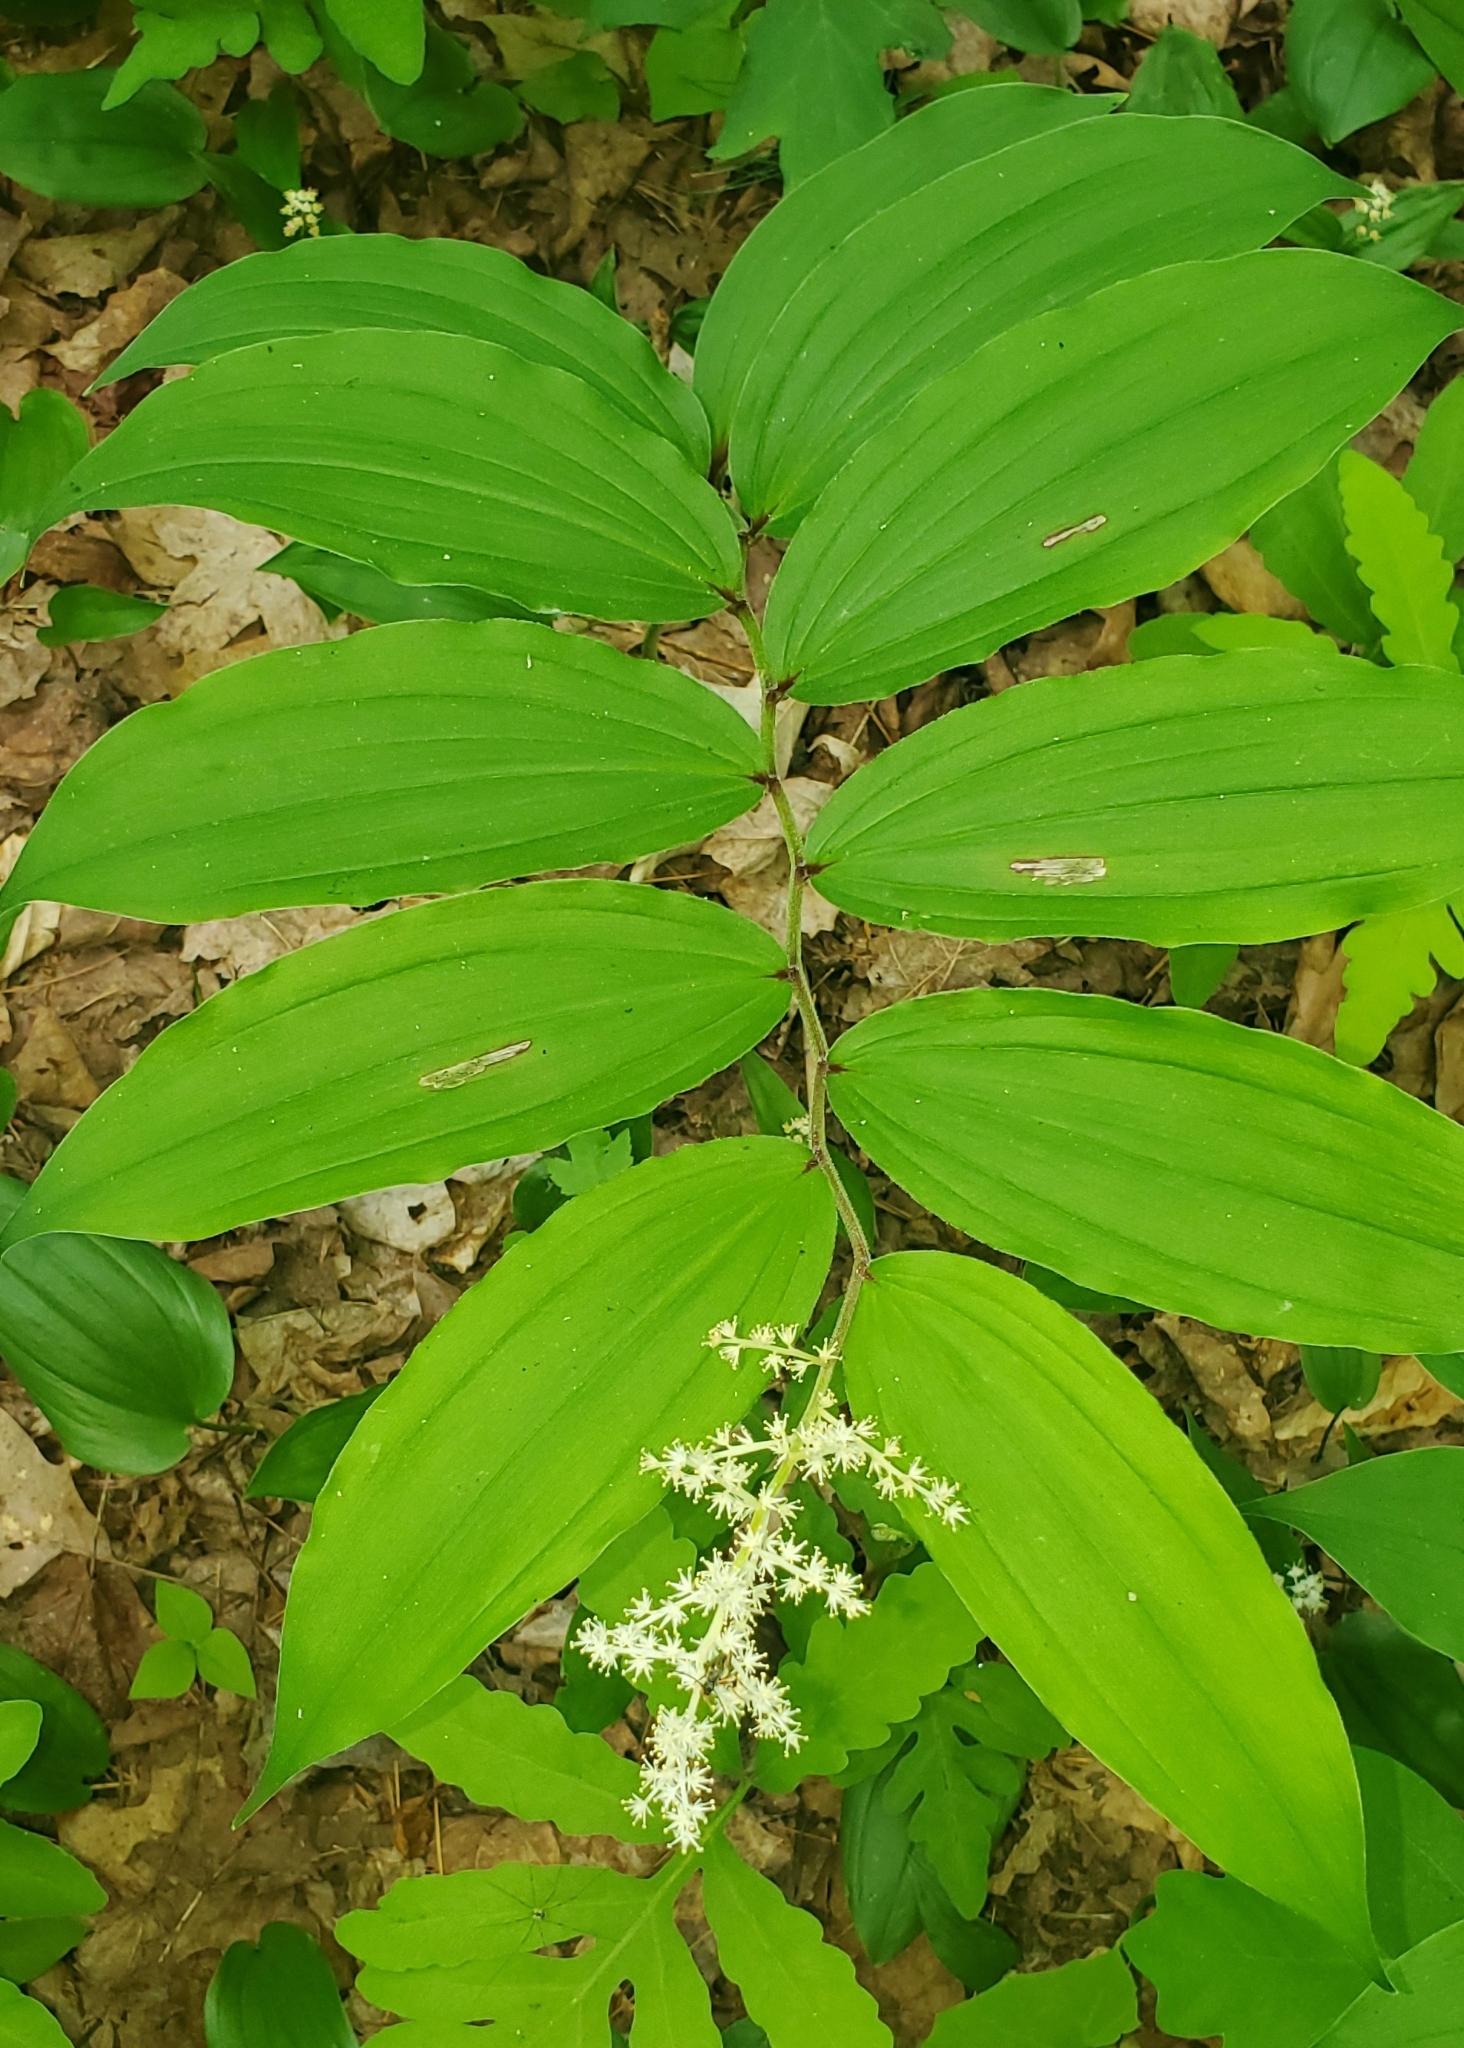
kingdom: Plantae
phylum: Tracheophyta
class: Liliopsida
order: Asparagales
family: Asparagaceae
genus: Maianthemum
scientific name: Maianthemum racemosum
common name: False spikenard
